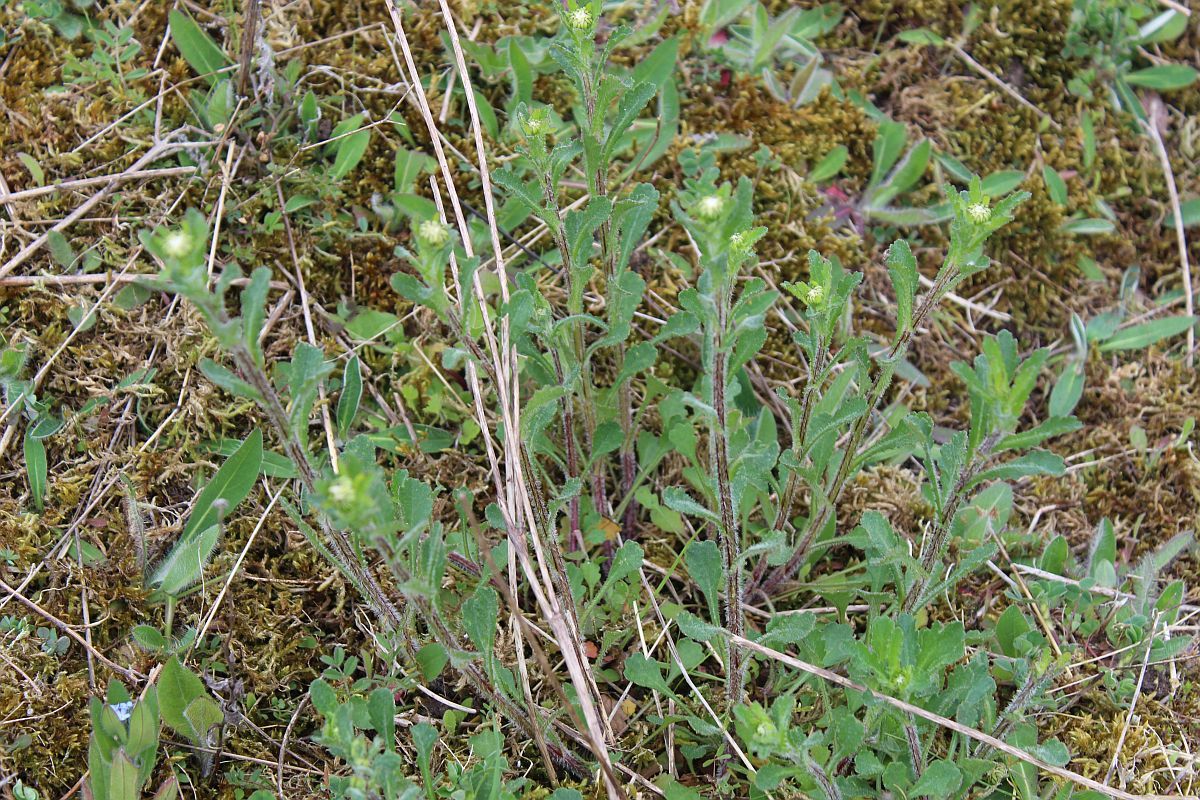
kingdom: Plantae
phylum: Tracheophyta
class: Magnoliopsida
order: Asterales
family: Asteraceae
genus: Leucanthemum
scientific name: Leucanthemum vulgare
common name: Oxeye daisy
